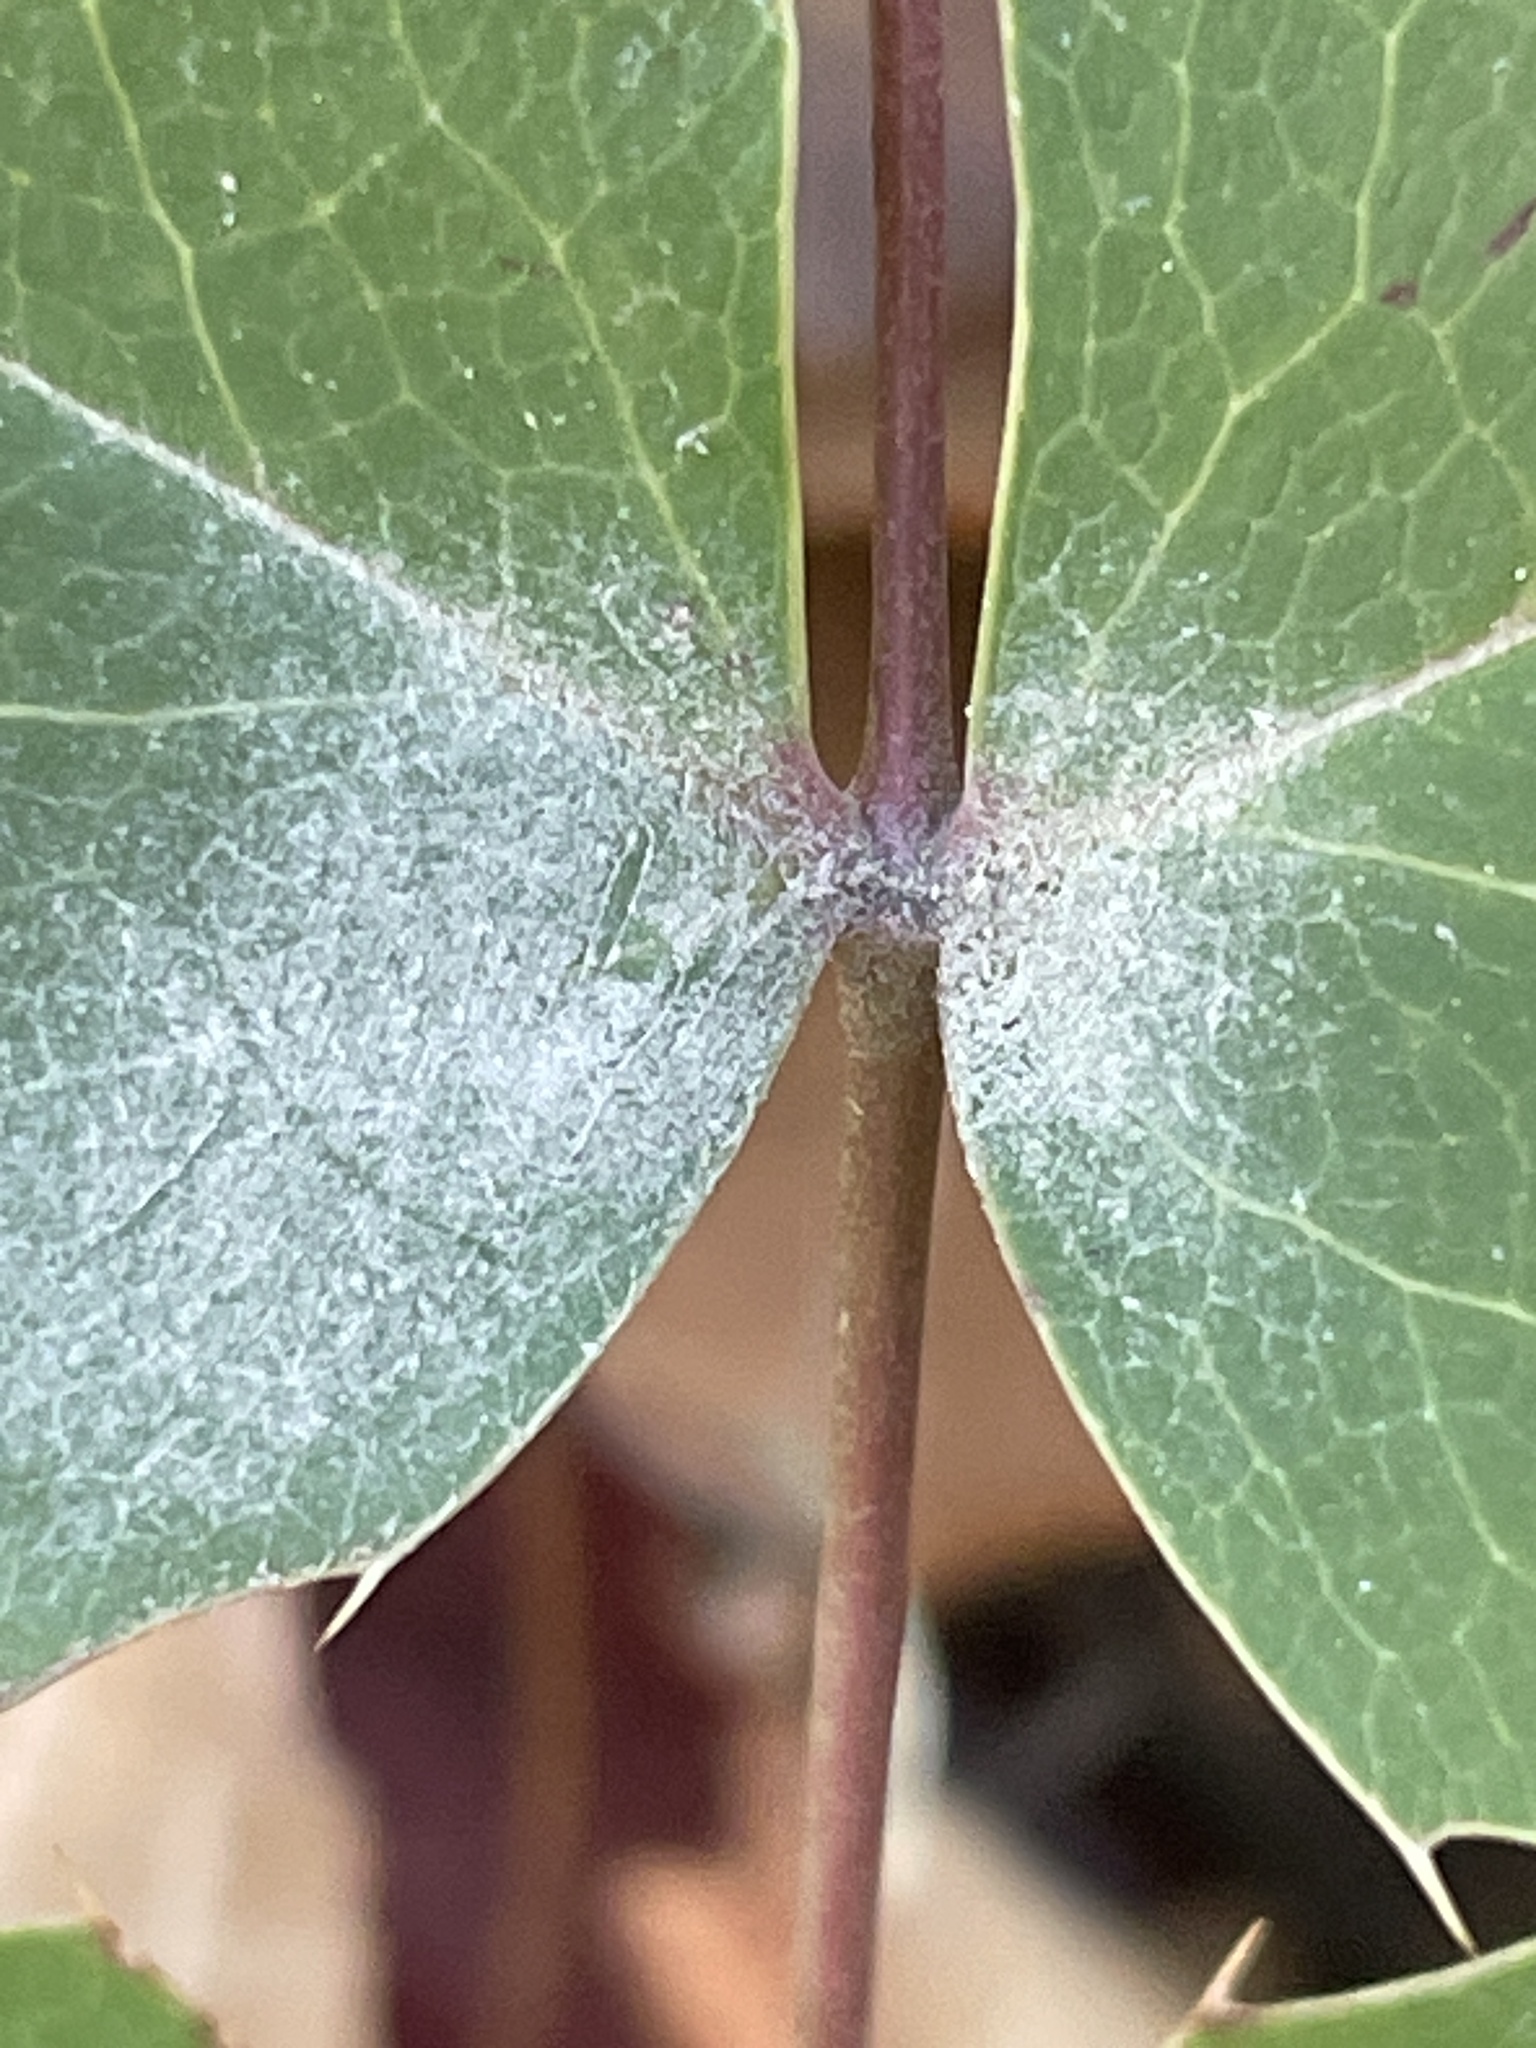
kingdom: Fungi
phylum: Ascomycota
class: Leotiomycetes
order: Helotiales
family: Erysiphaceae
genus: Erysiphe
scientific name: Erysiphe berberidis
